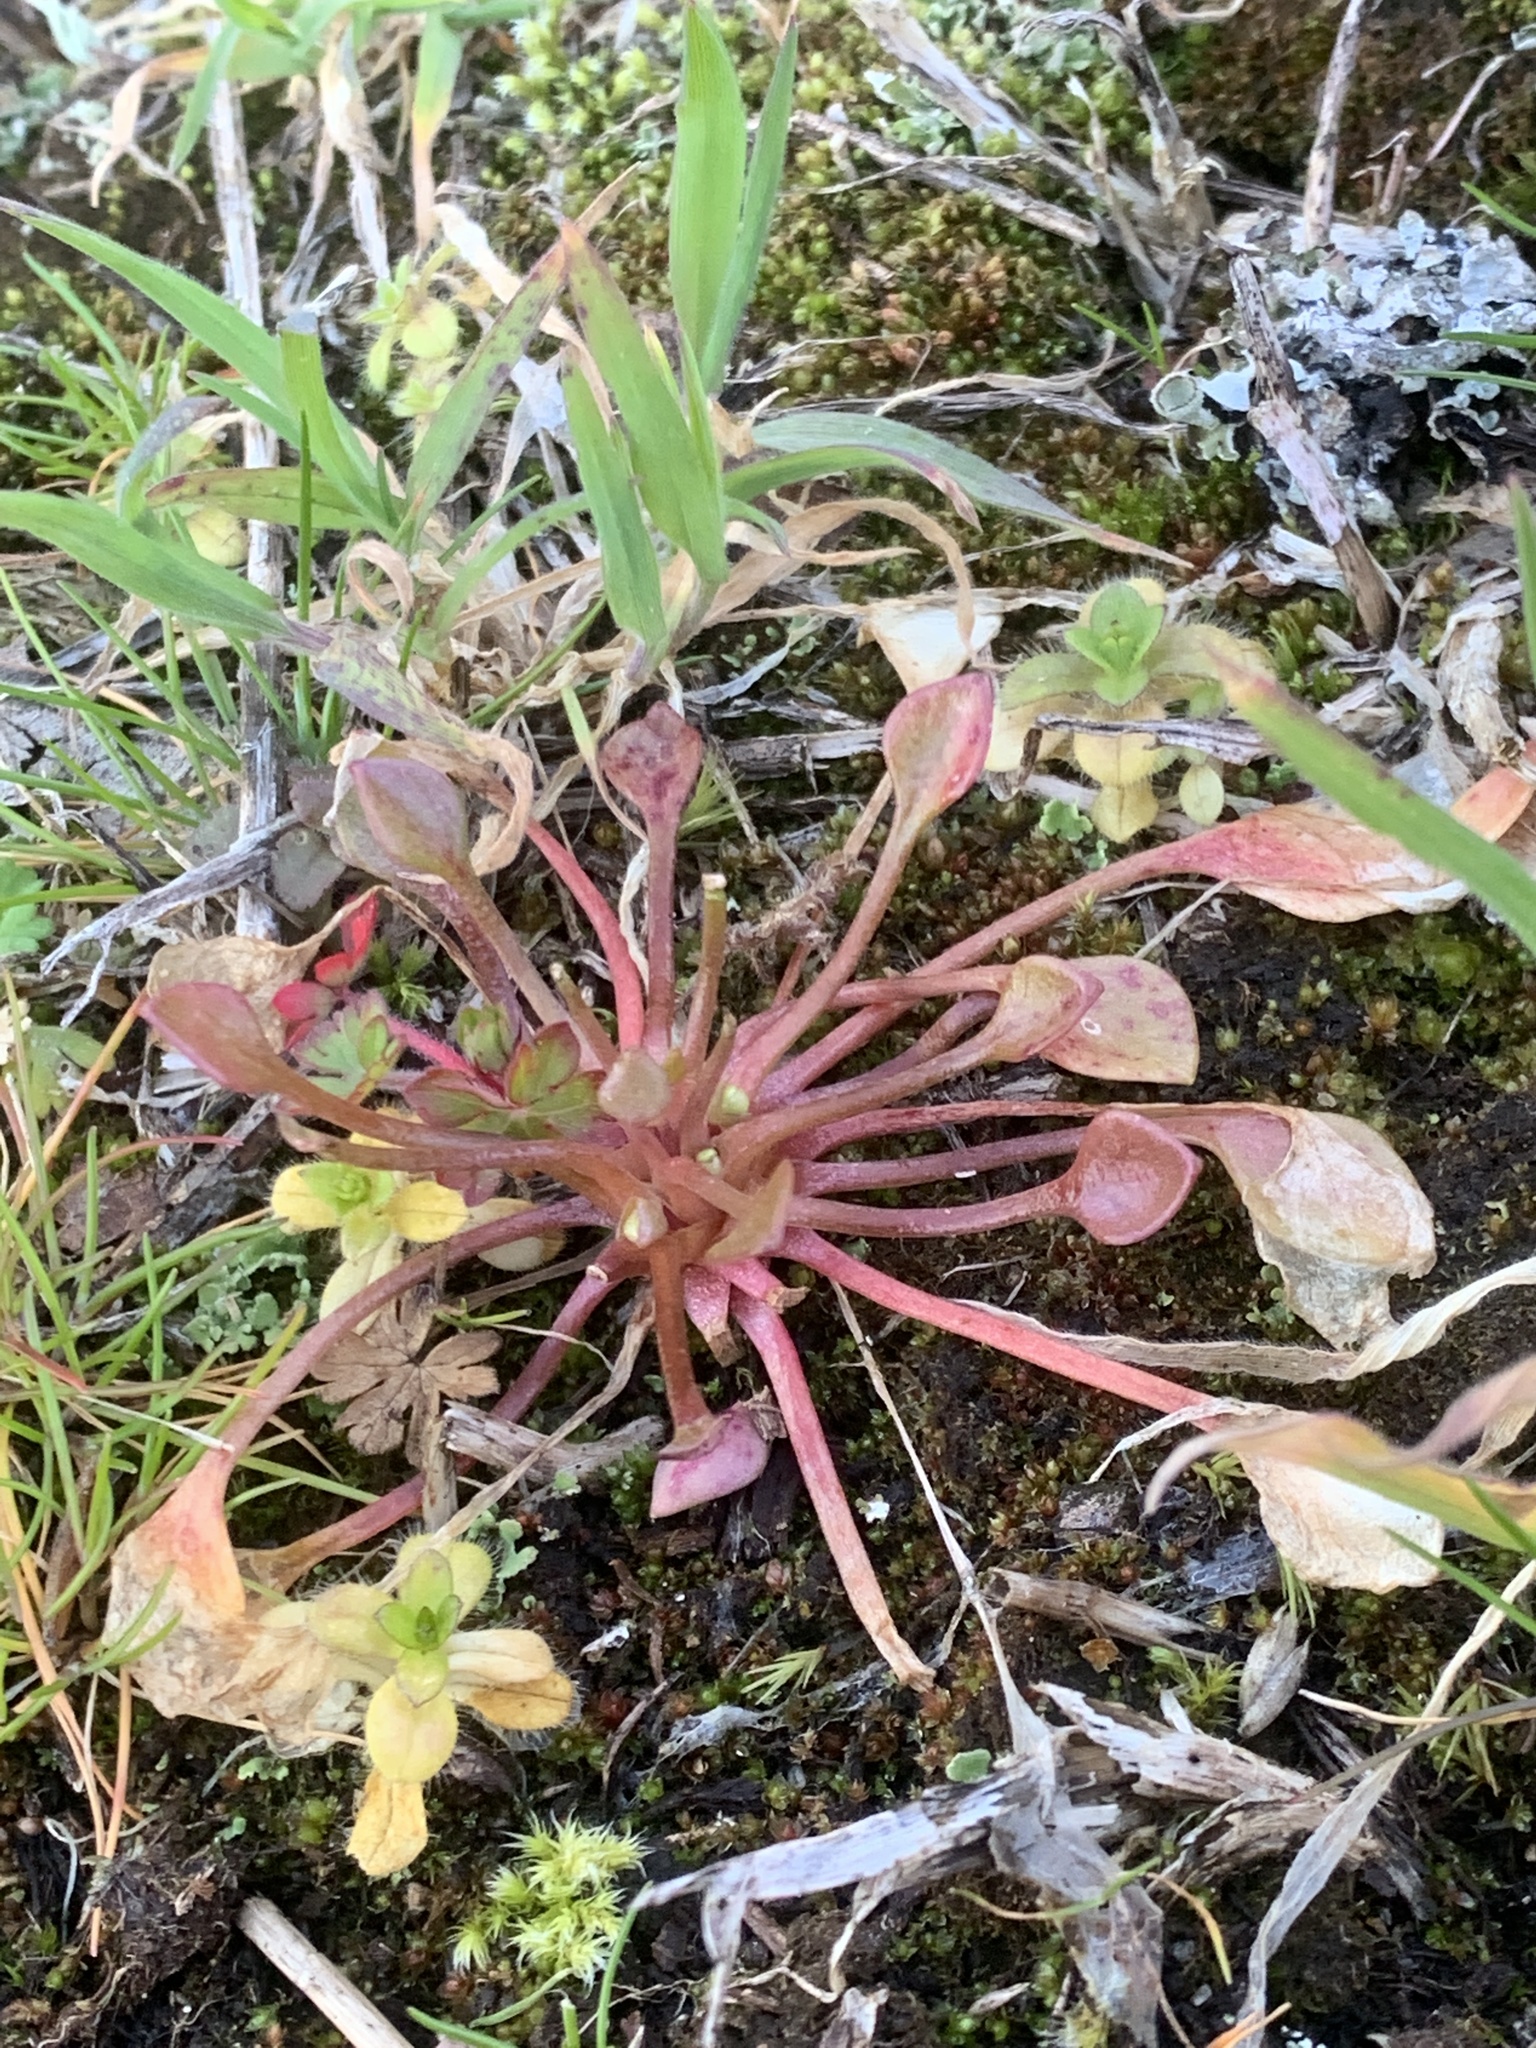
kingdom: Plantae
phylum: Tracheophyta
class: Magnoliopsida
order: Caryophyllales
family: Montiaceae
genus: Claytonia
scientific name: Claytonia rubra
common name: Erubescent miner's-lettuce
